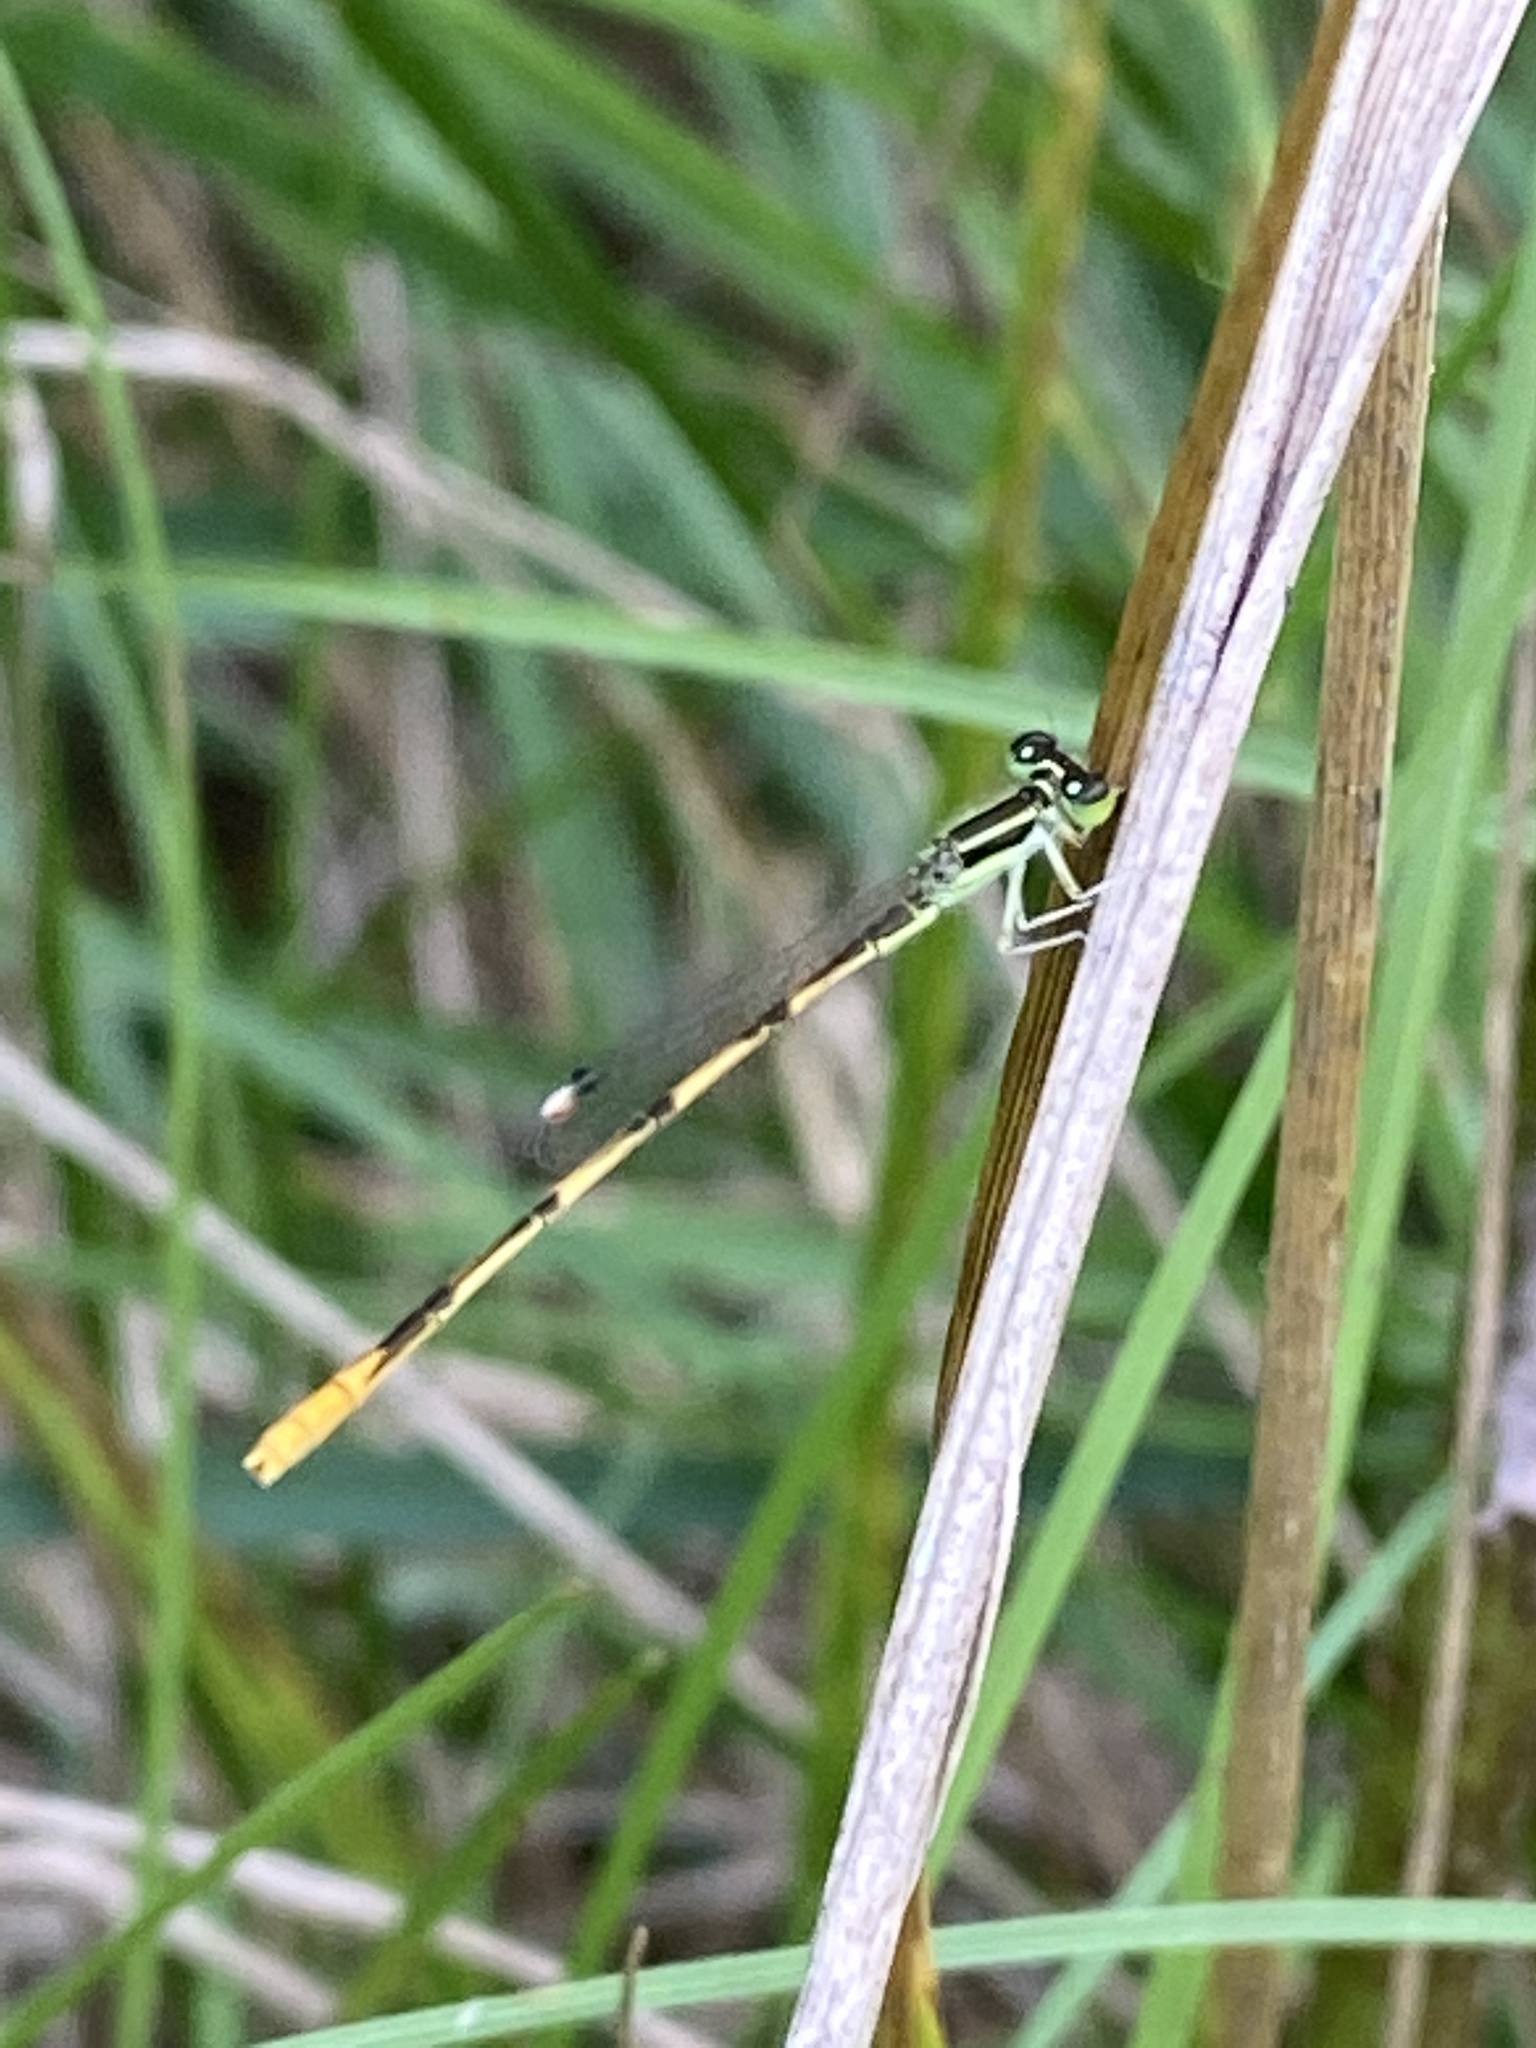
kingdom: Animalia
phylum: Arthropoda
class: Insecta
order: Odonata
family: Coenagrionidae
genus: Ischnura
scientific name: Ischnura hastata
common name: Citrine forktail
